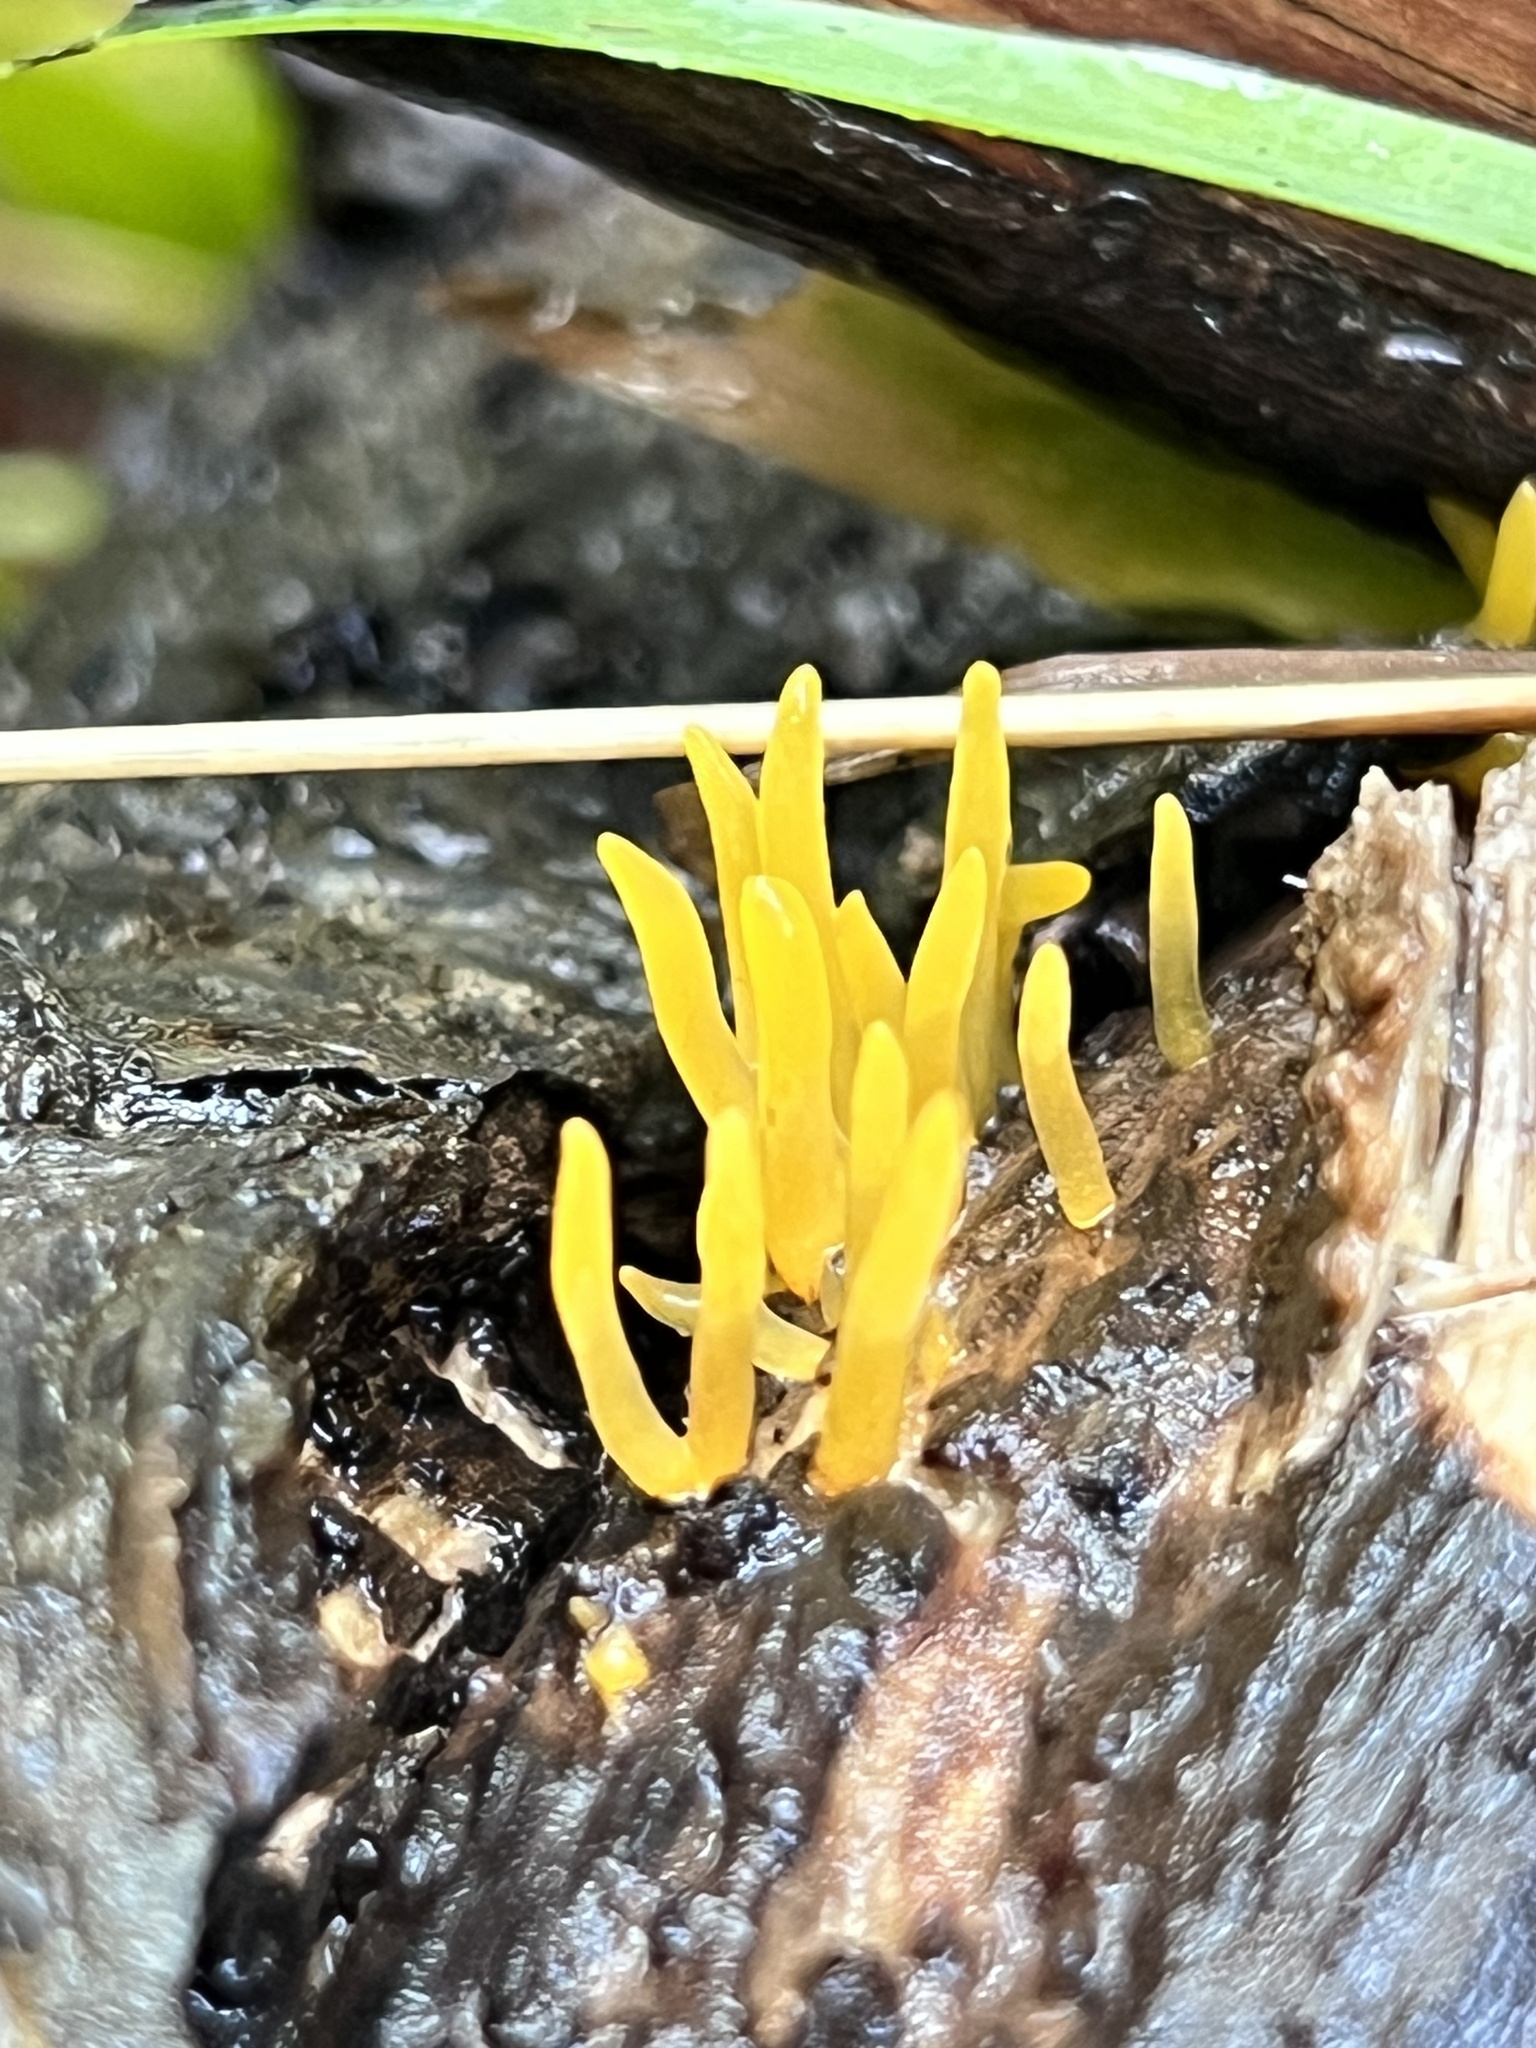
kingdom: Fungi
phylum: Basidiomycota
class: Dacrymycetes
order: Dacrymycetales
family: Dacrymycetaceae
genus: Calocera
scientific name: Calocera cornea
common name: Small stagshorn
